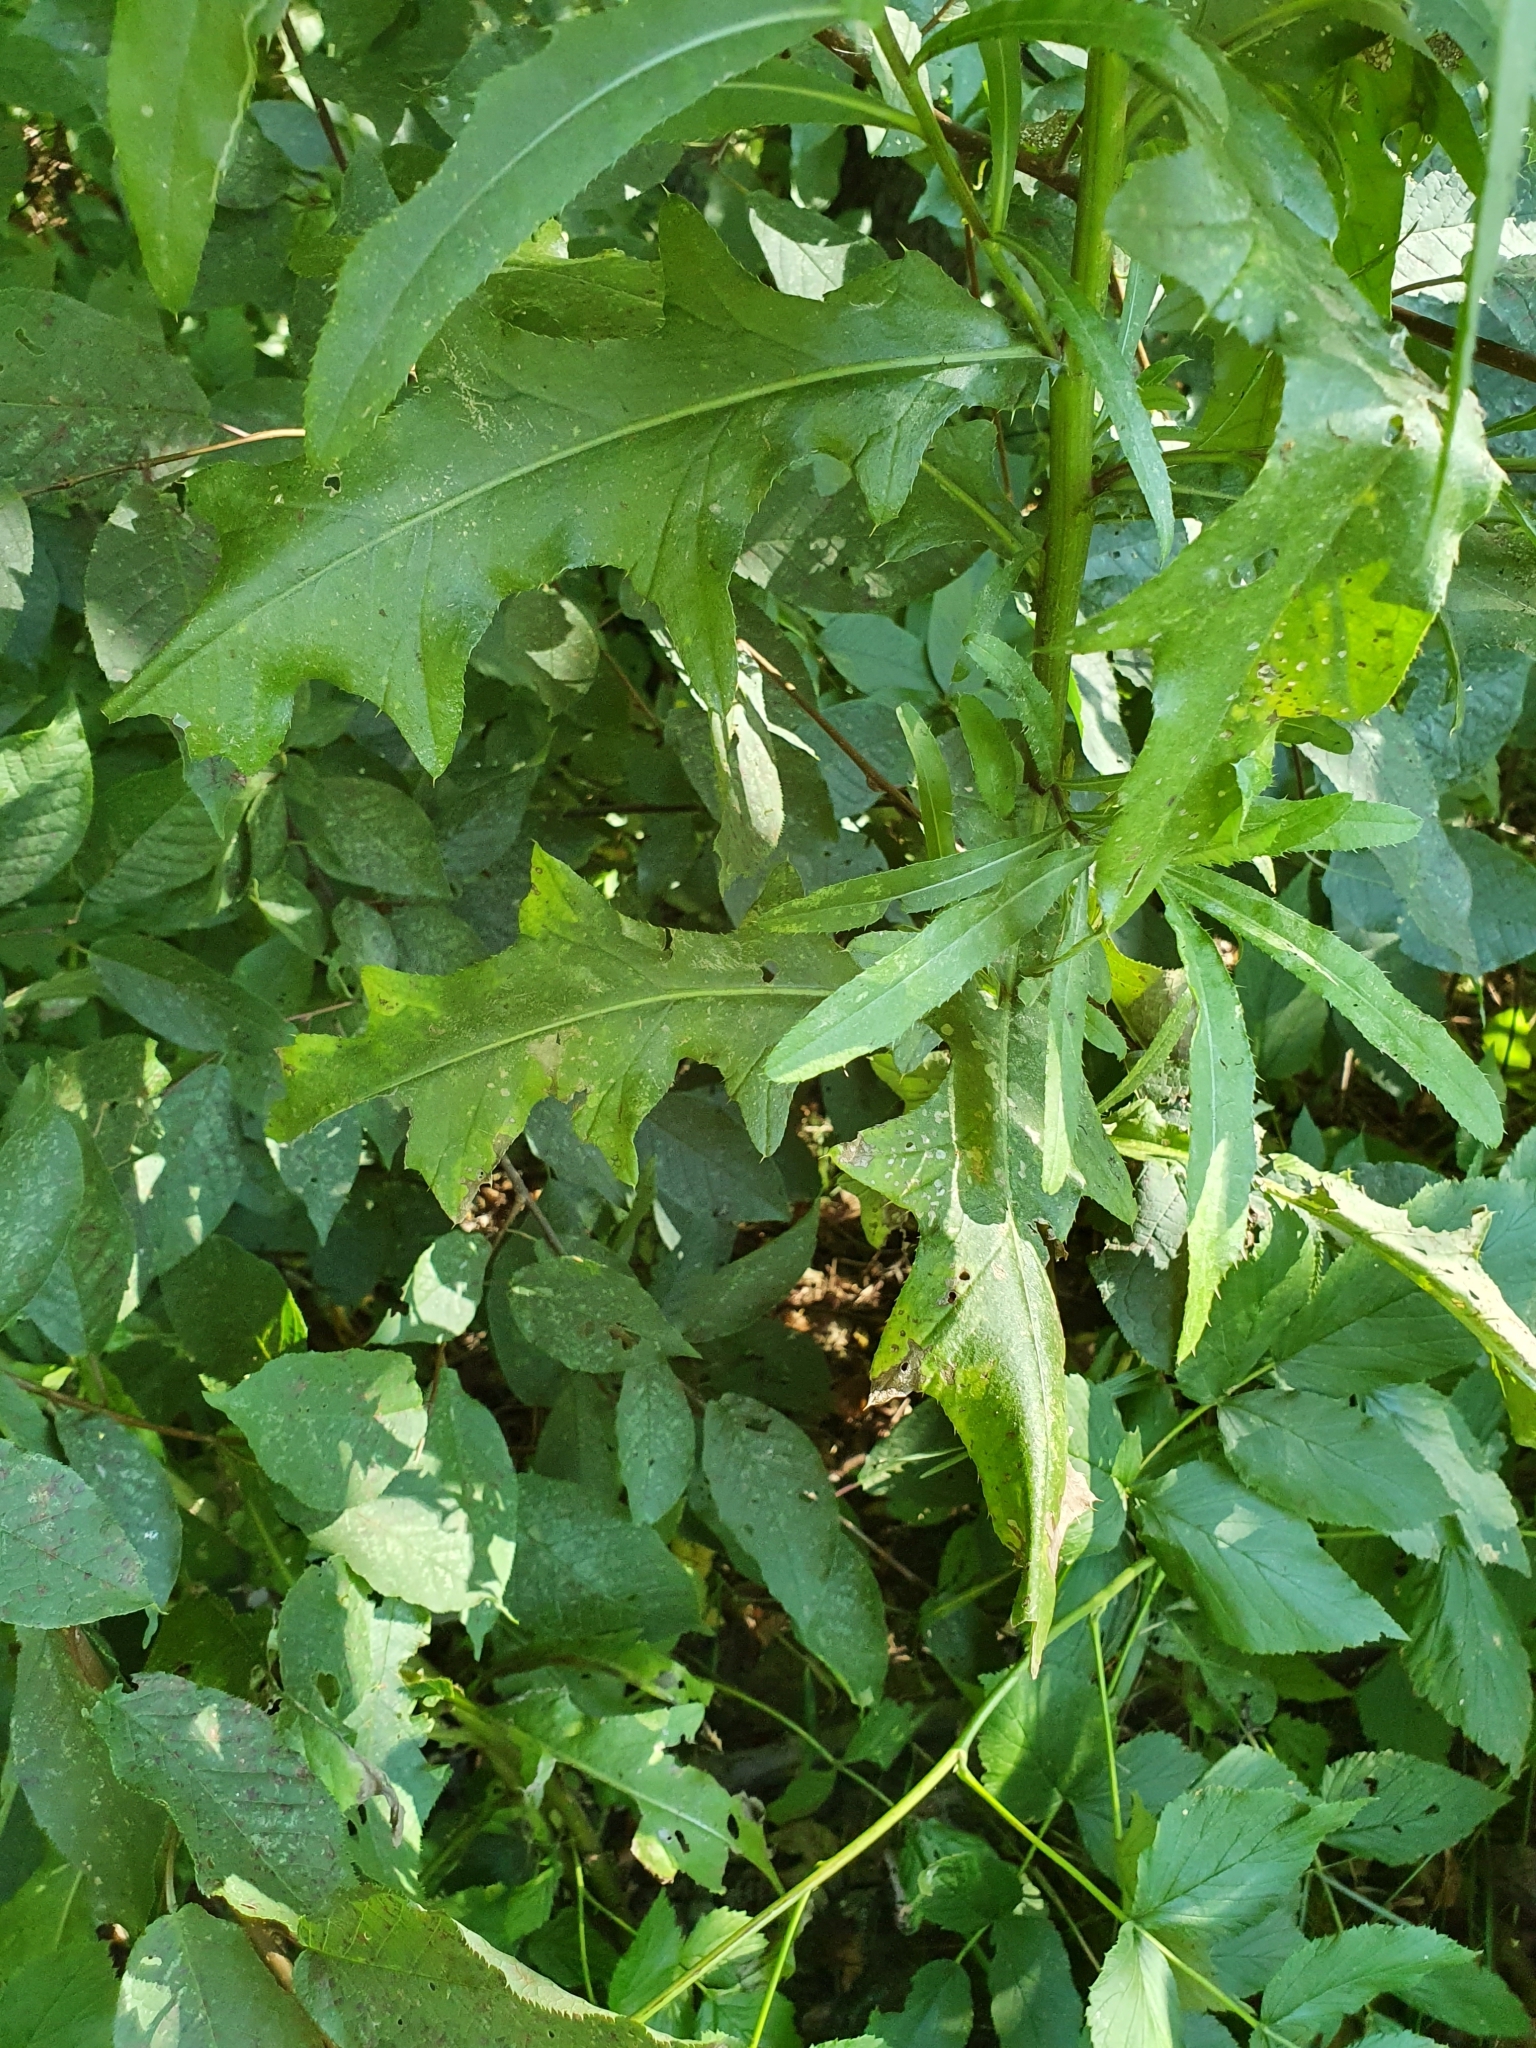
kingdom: Plantae
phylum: Tracheophyta
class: Magnoliopsida
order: Asterales
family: Asteraceae
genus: Cirsium
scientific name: Cirsium arvense
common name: Creeping thistle
